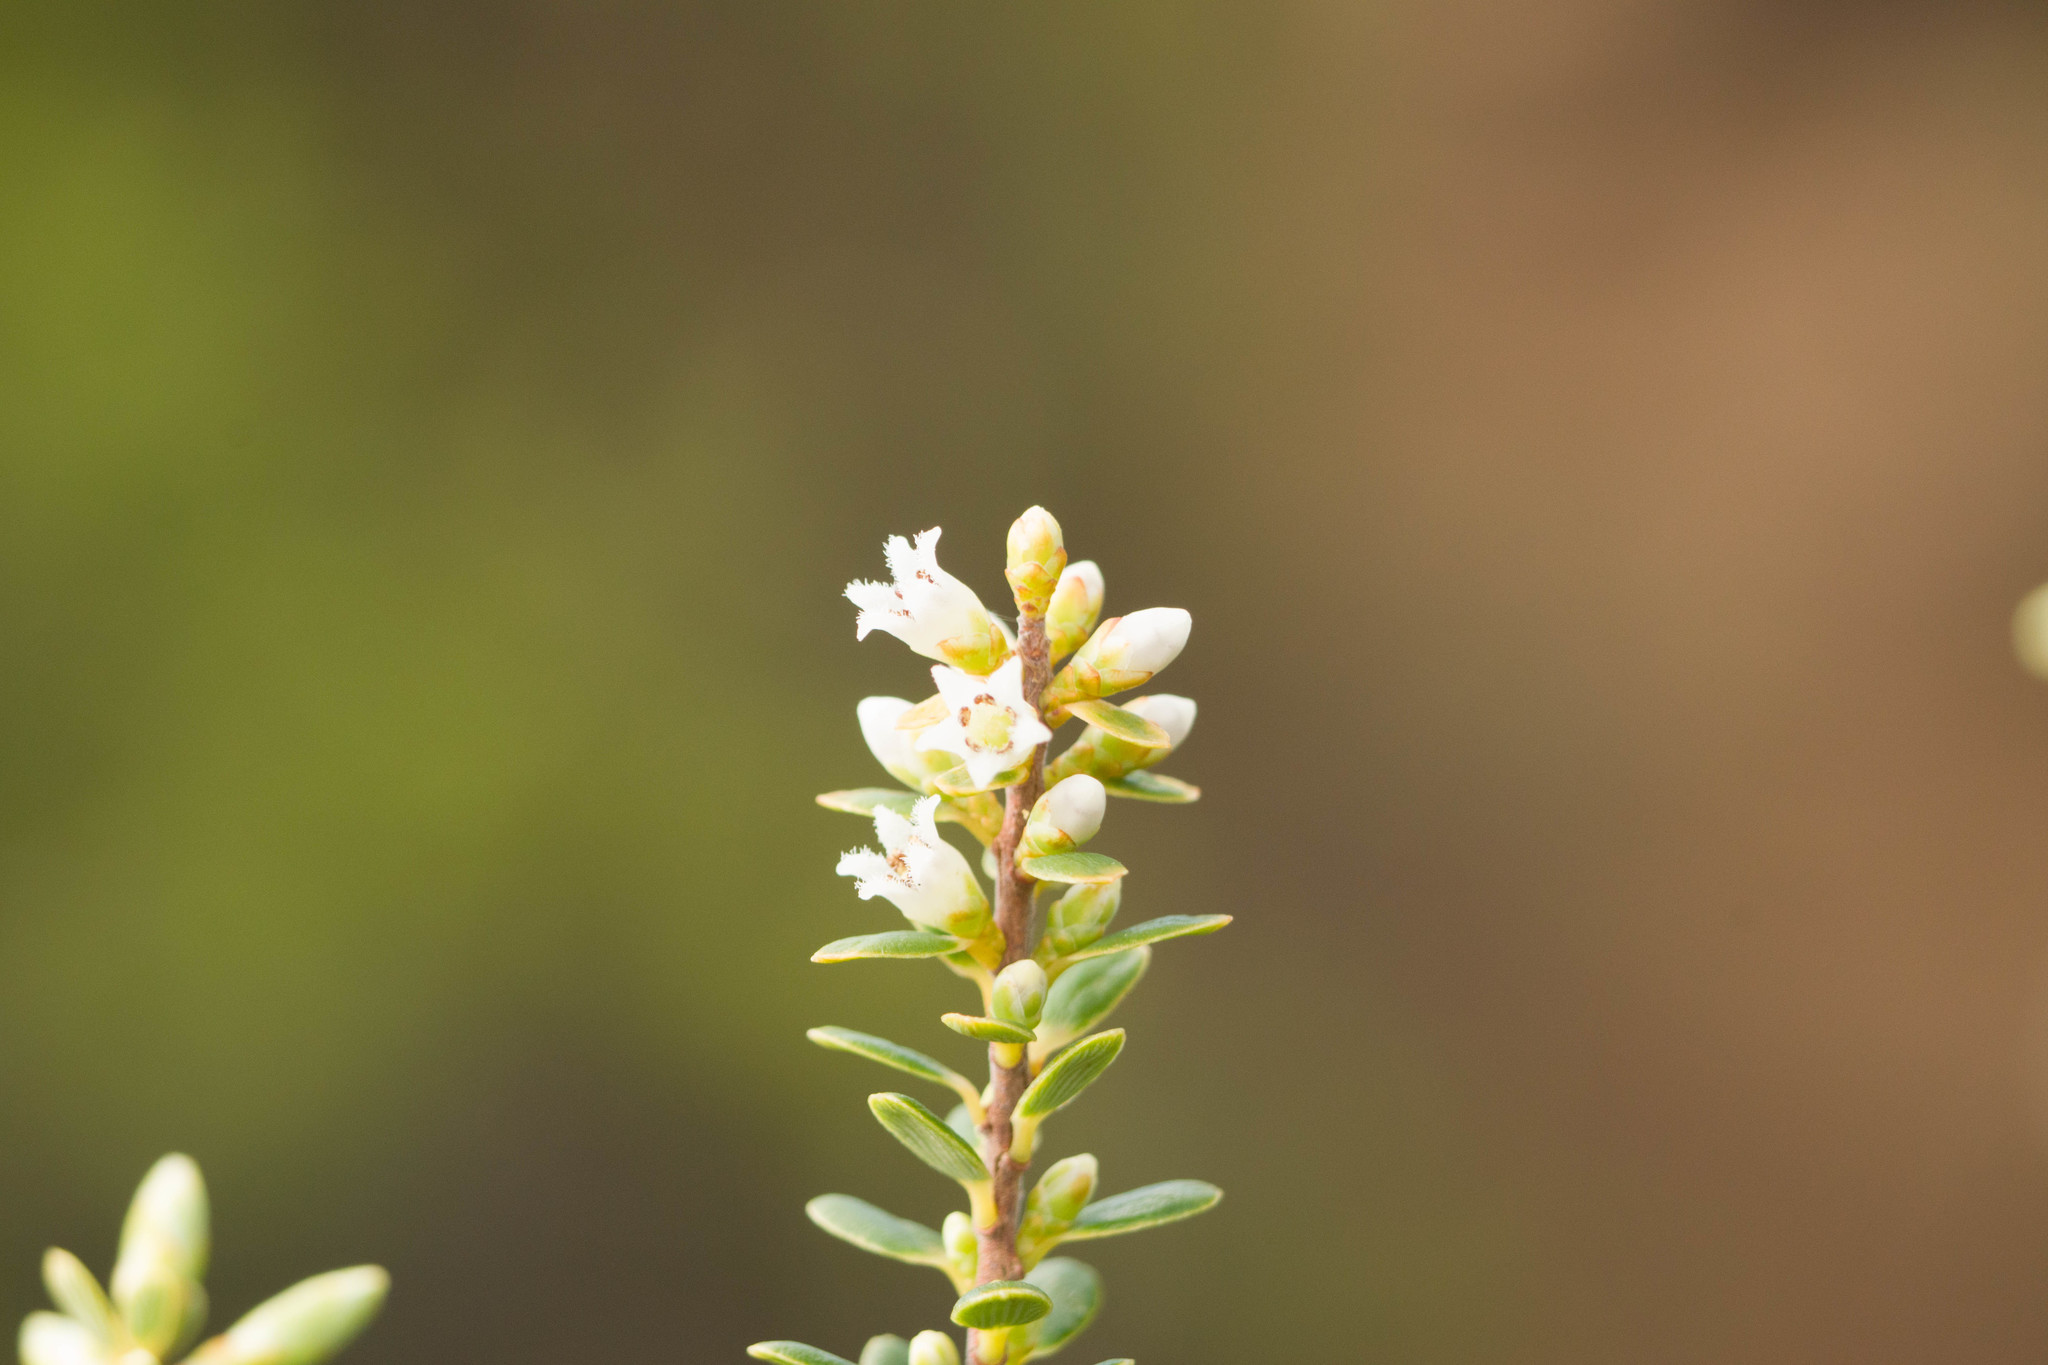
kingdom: Plantae
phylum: Tracheophyta
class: Magnoliopsida
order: Ericales
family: Ericaceae
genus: Leptecophylla
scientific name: Leptecophylla tameiameiae
